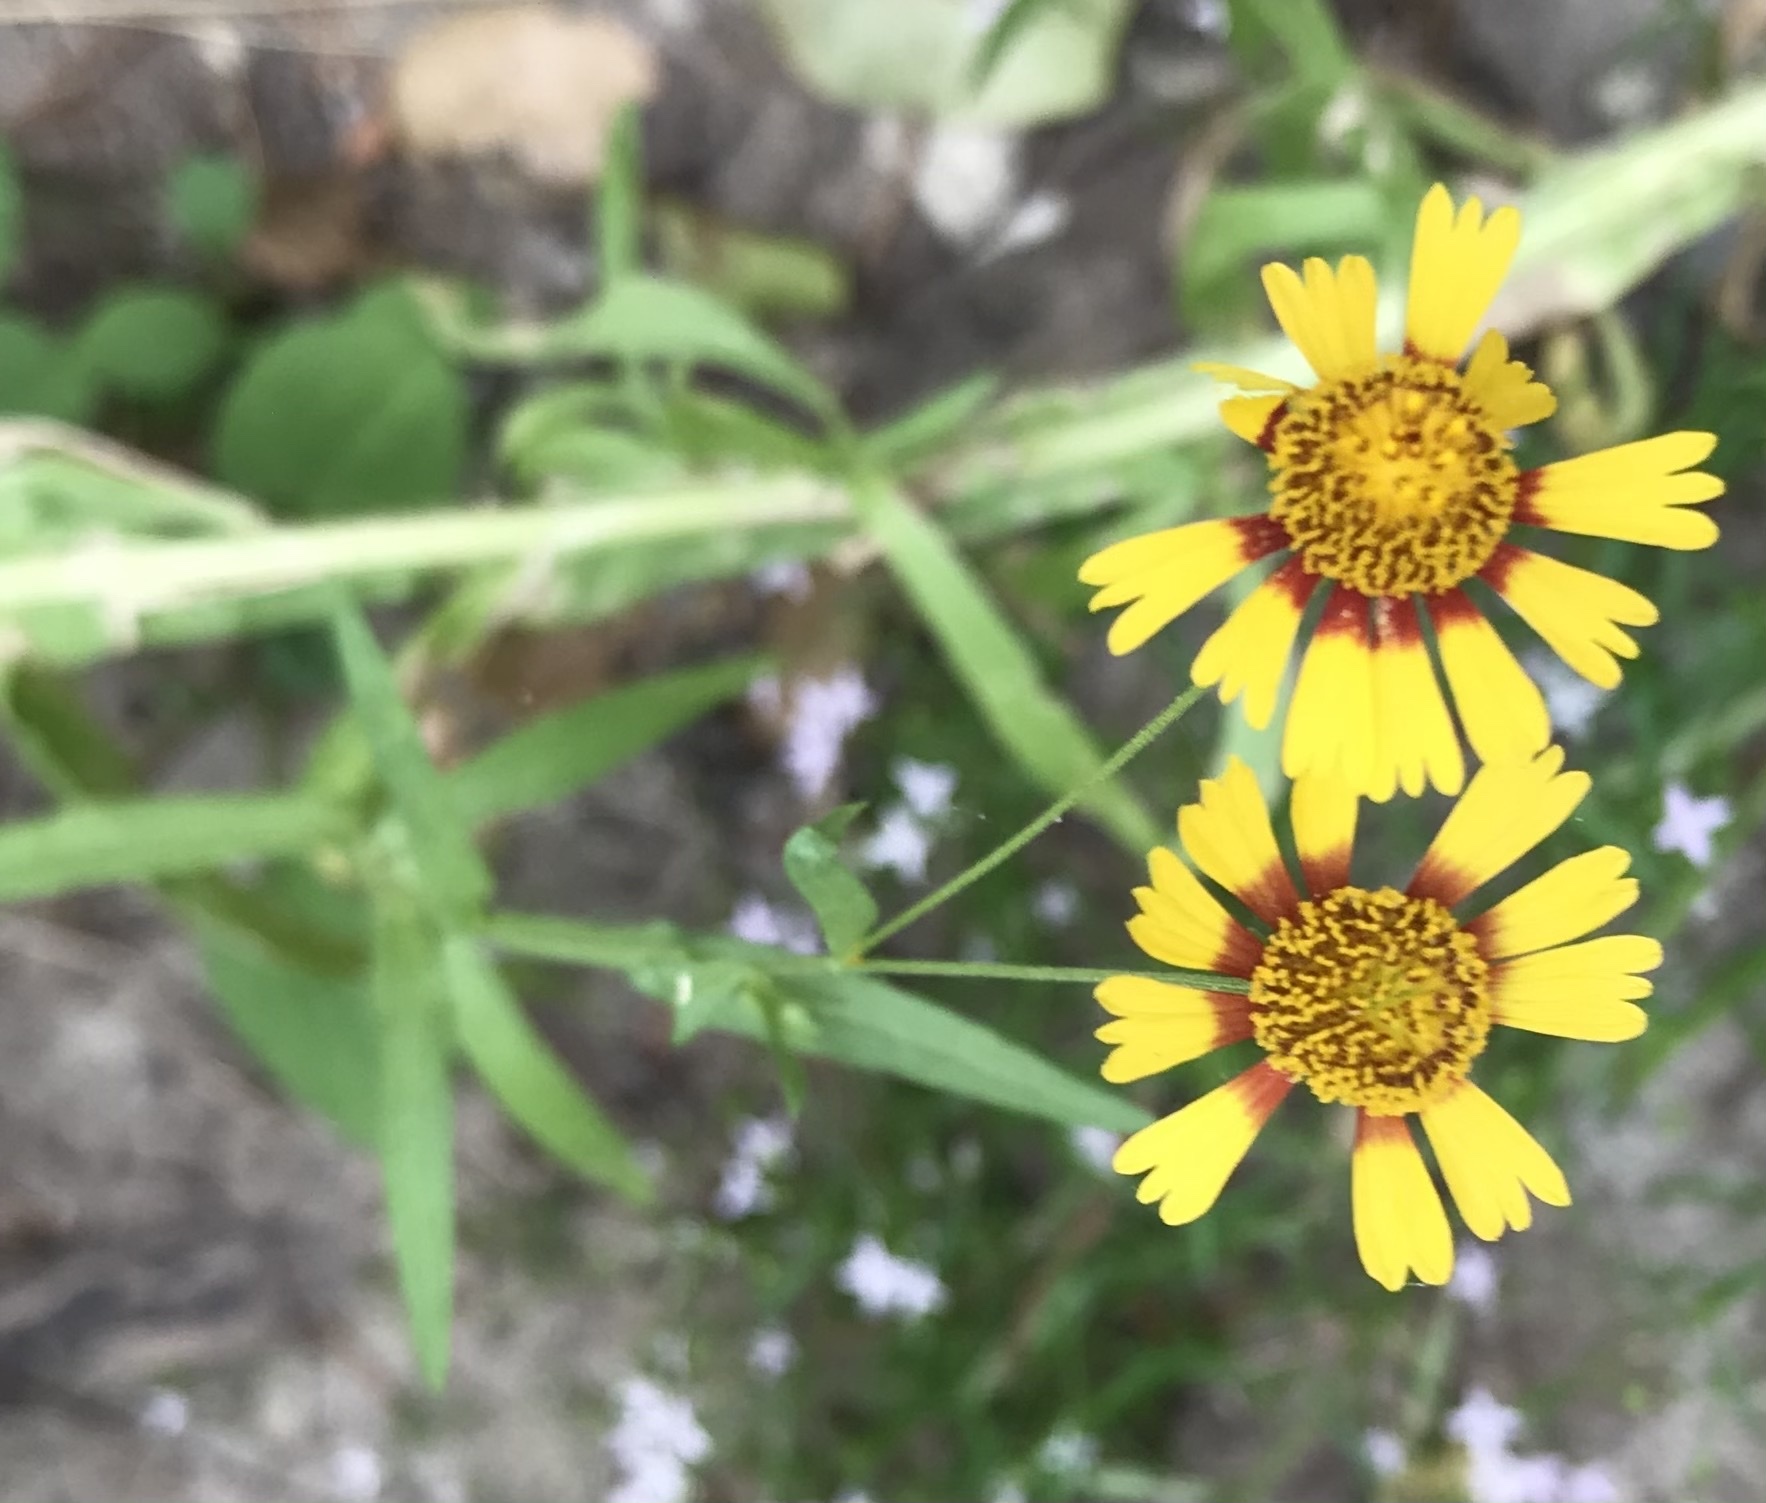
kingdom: Plantae
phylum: Tracheophyta
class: Magnoliopsida
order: Asterales
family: Asteraceae
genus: Helenium
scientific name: Helenium elegans
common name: Pretty sneezeweed
